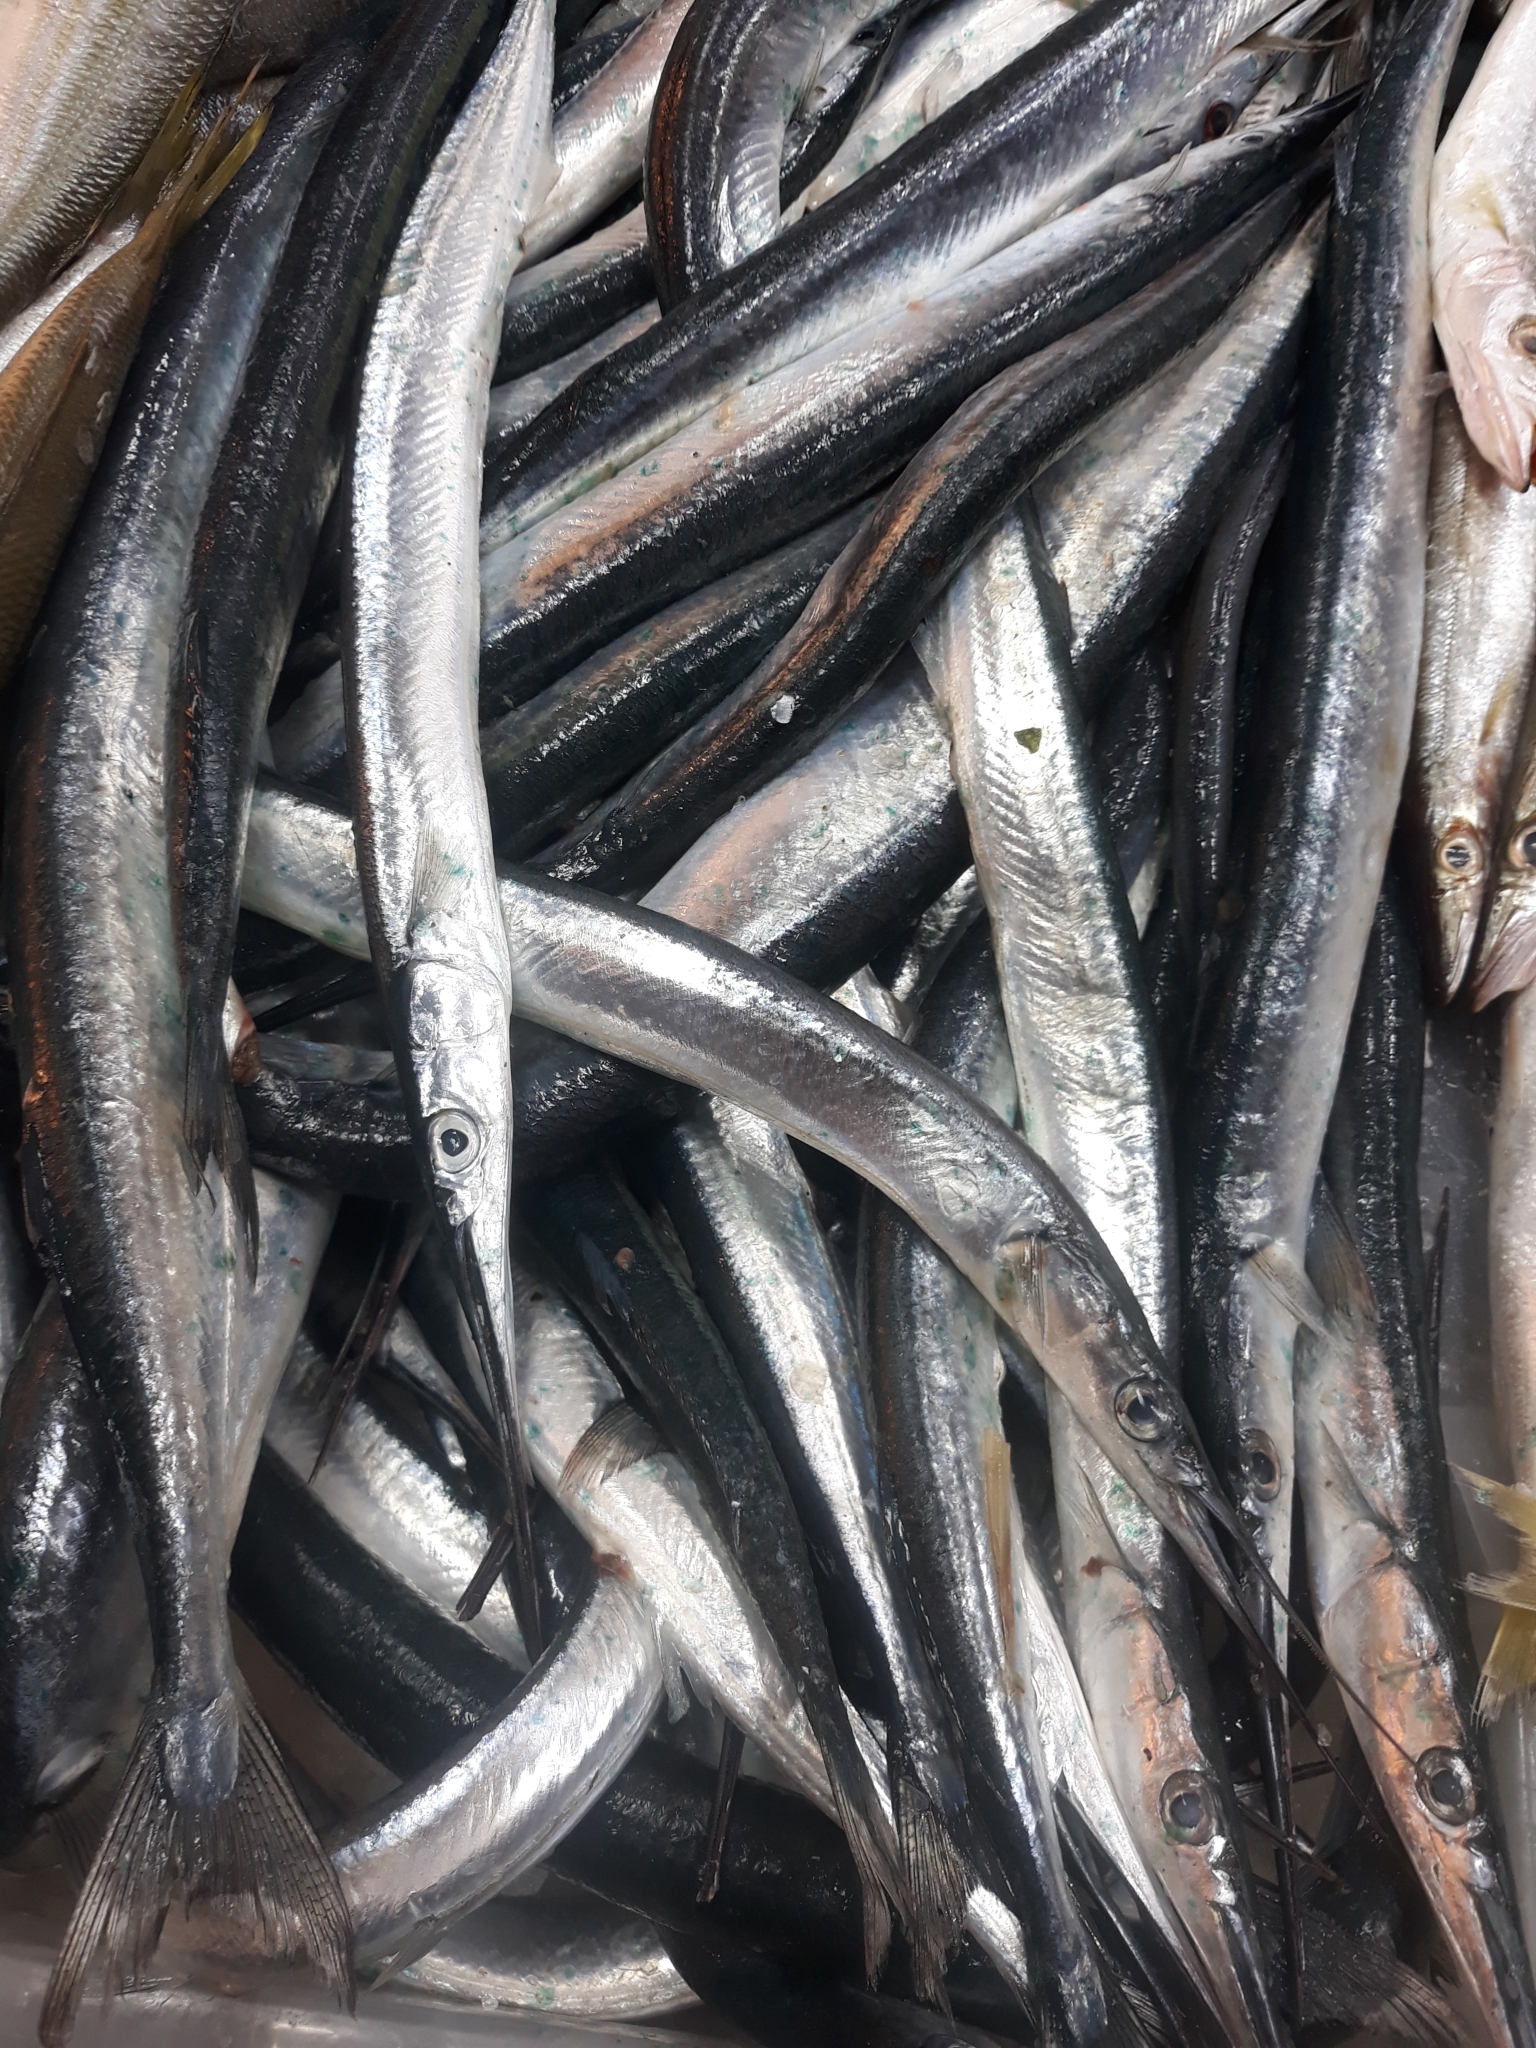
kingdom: Animalia
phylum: Chordata
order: Beloniformes
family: Belonidae
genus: Belone
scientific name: Belone belone
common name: Garfish
